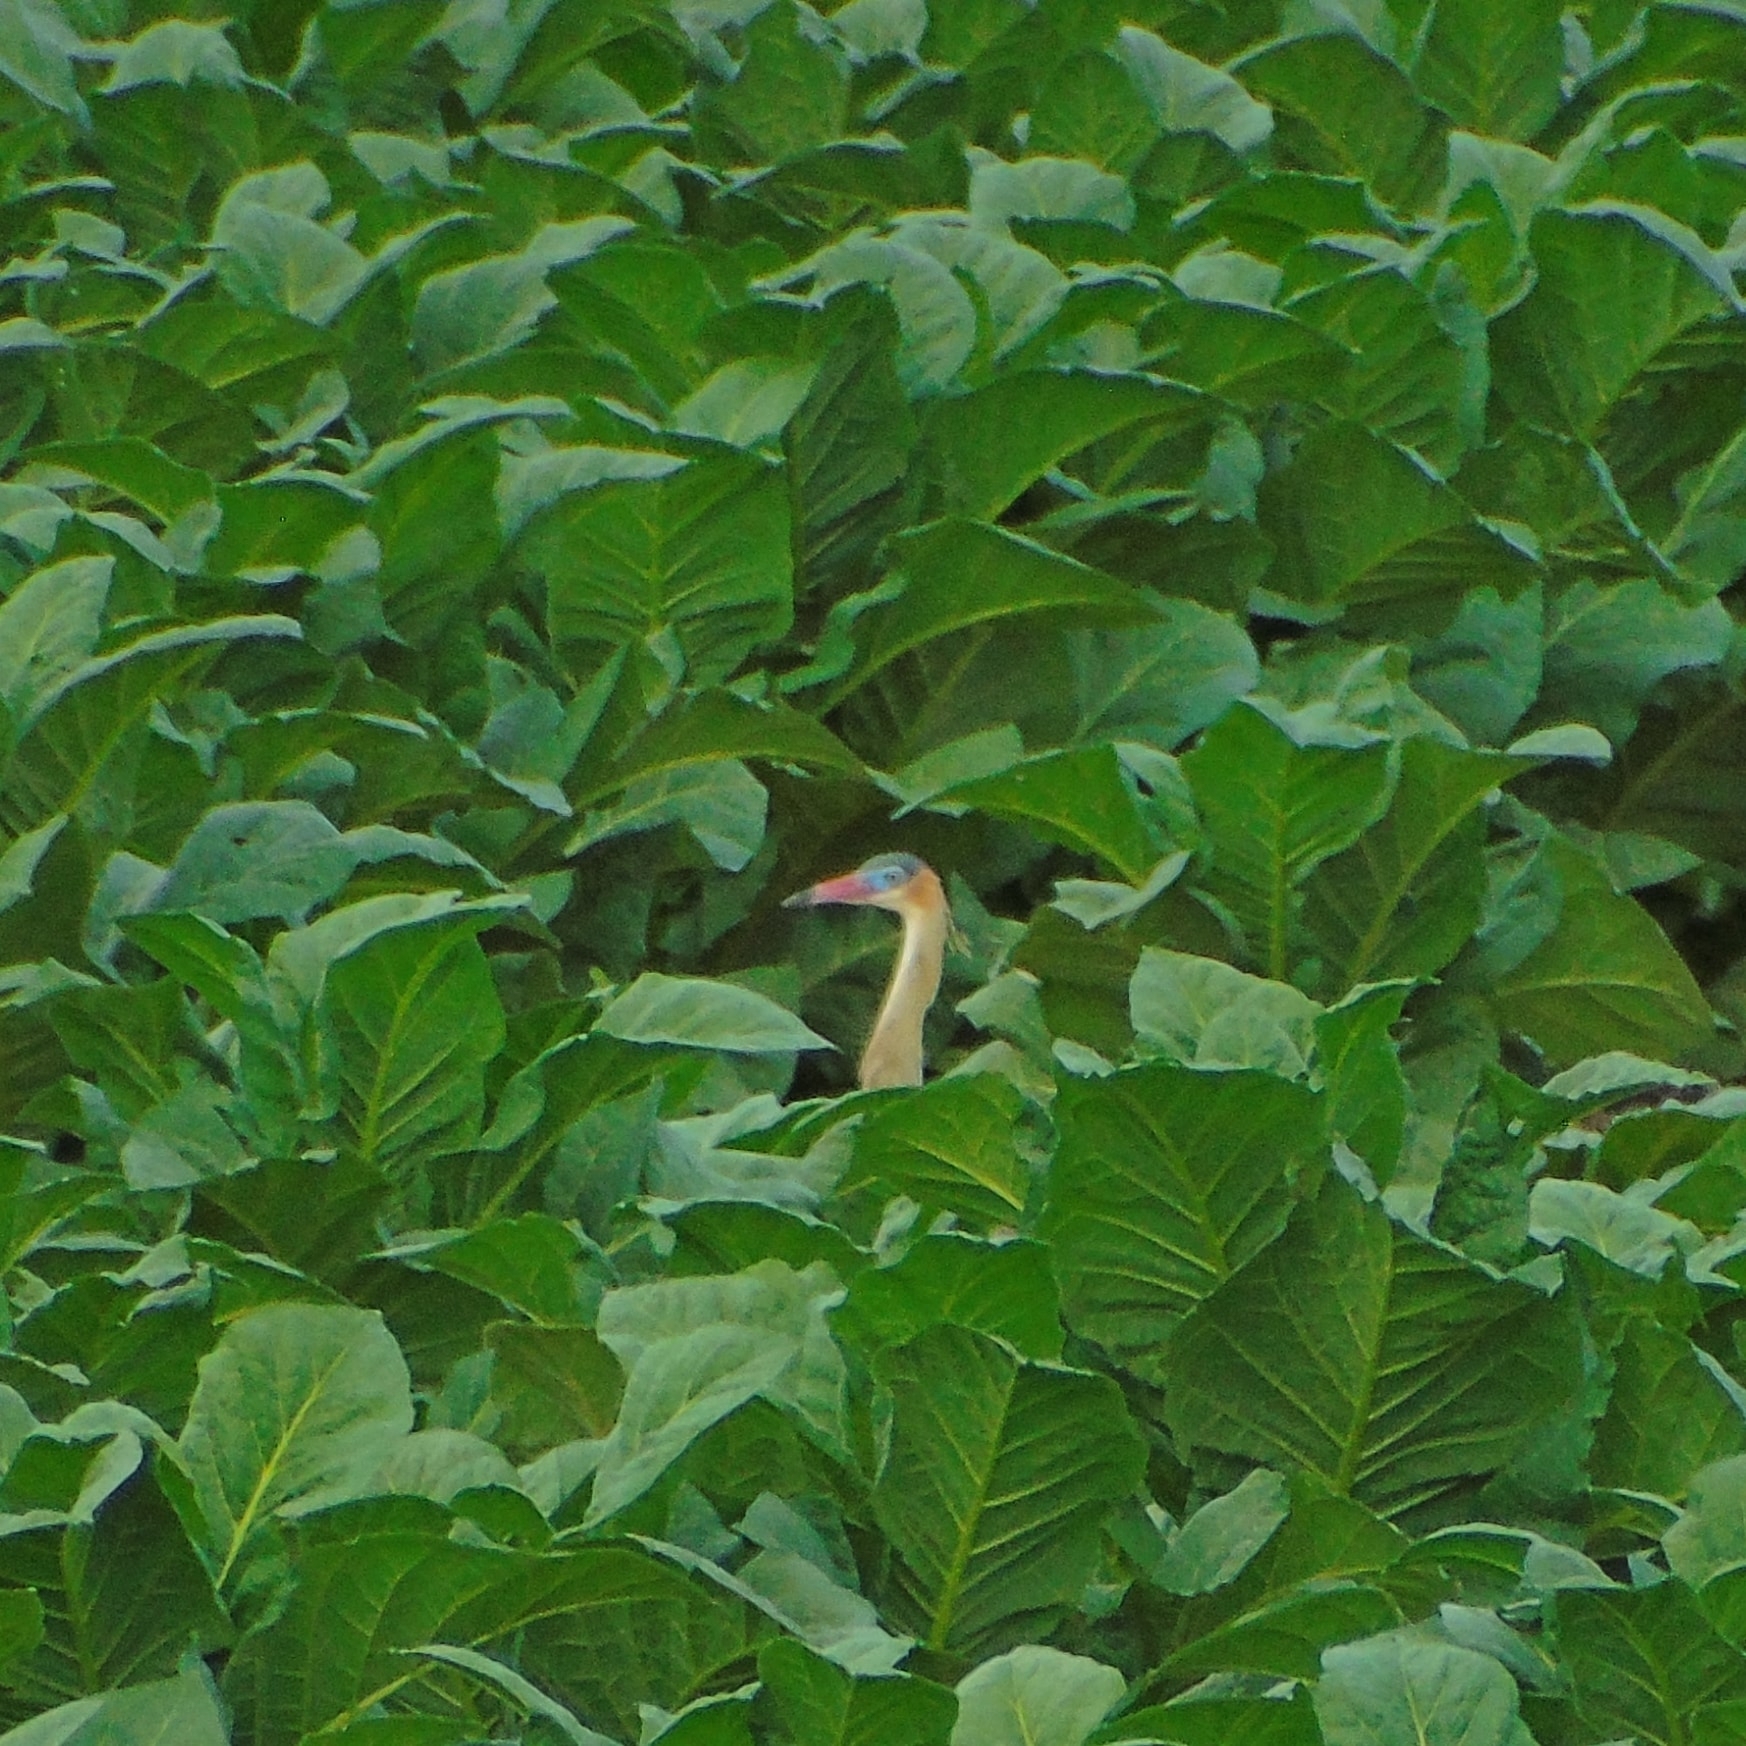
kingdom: Animalia
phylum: Chordata
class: Aves
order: Pelecaniformes
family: Ardeidae
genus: Syrigma
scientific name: Syrigma sibilatrix
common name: Whistling heron
